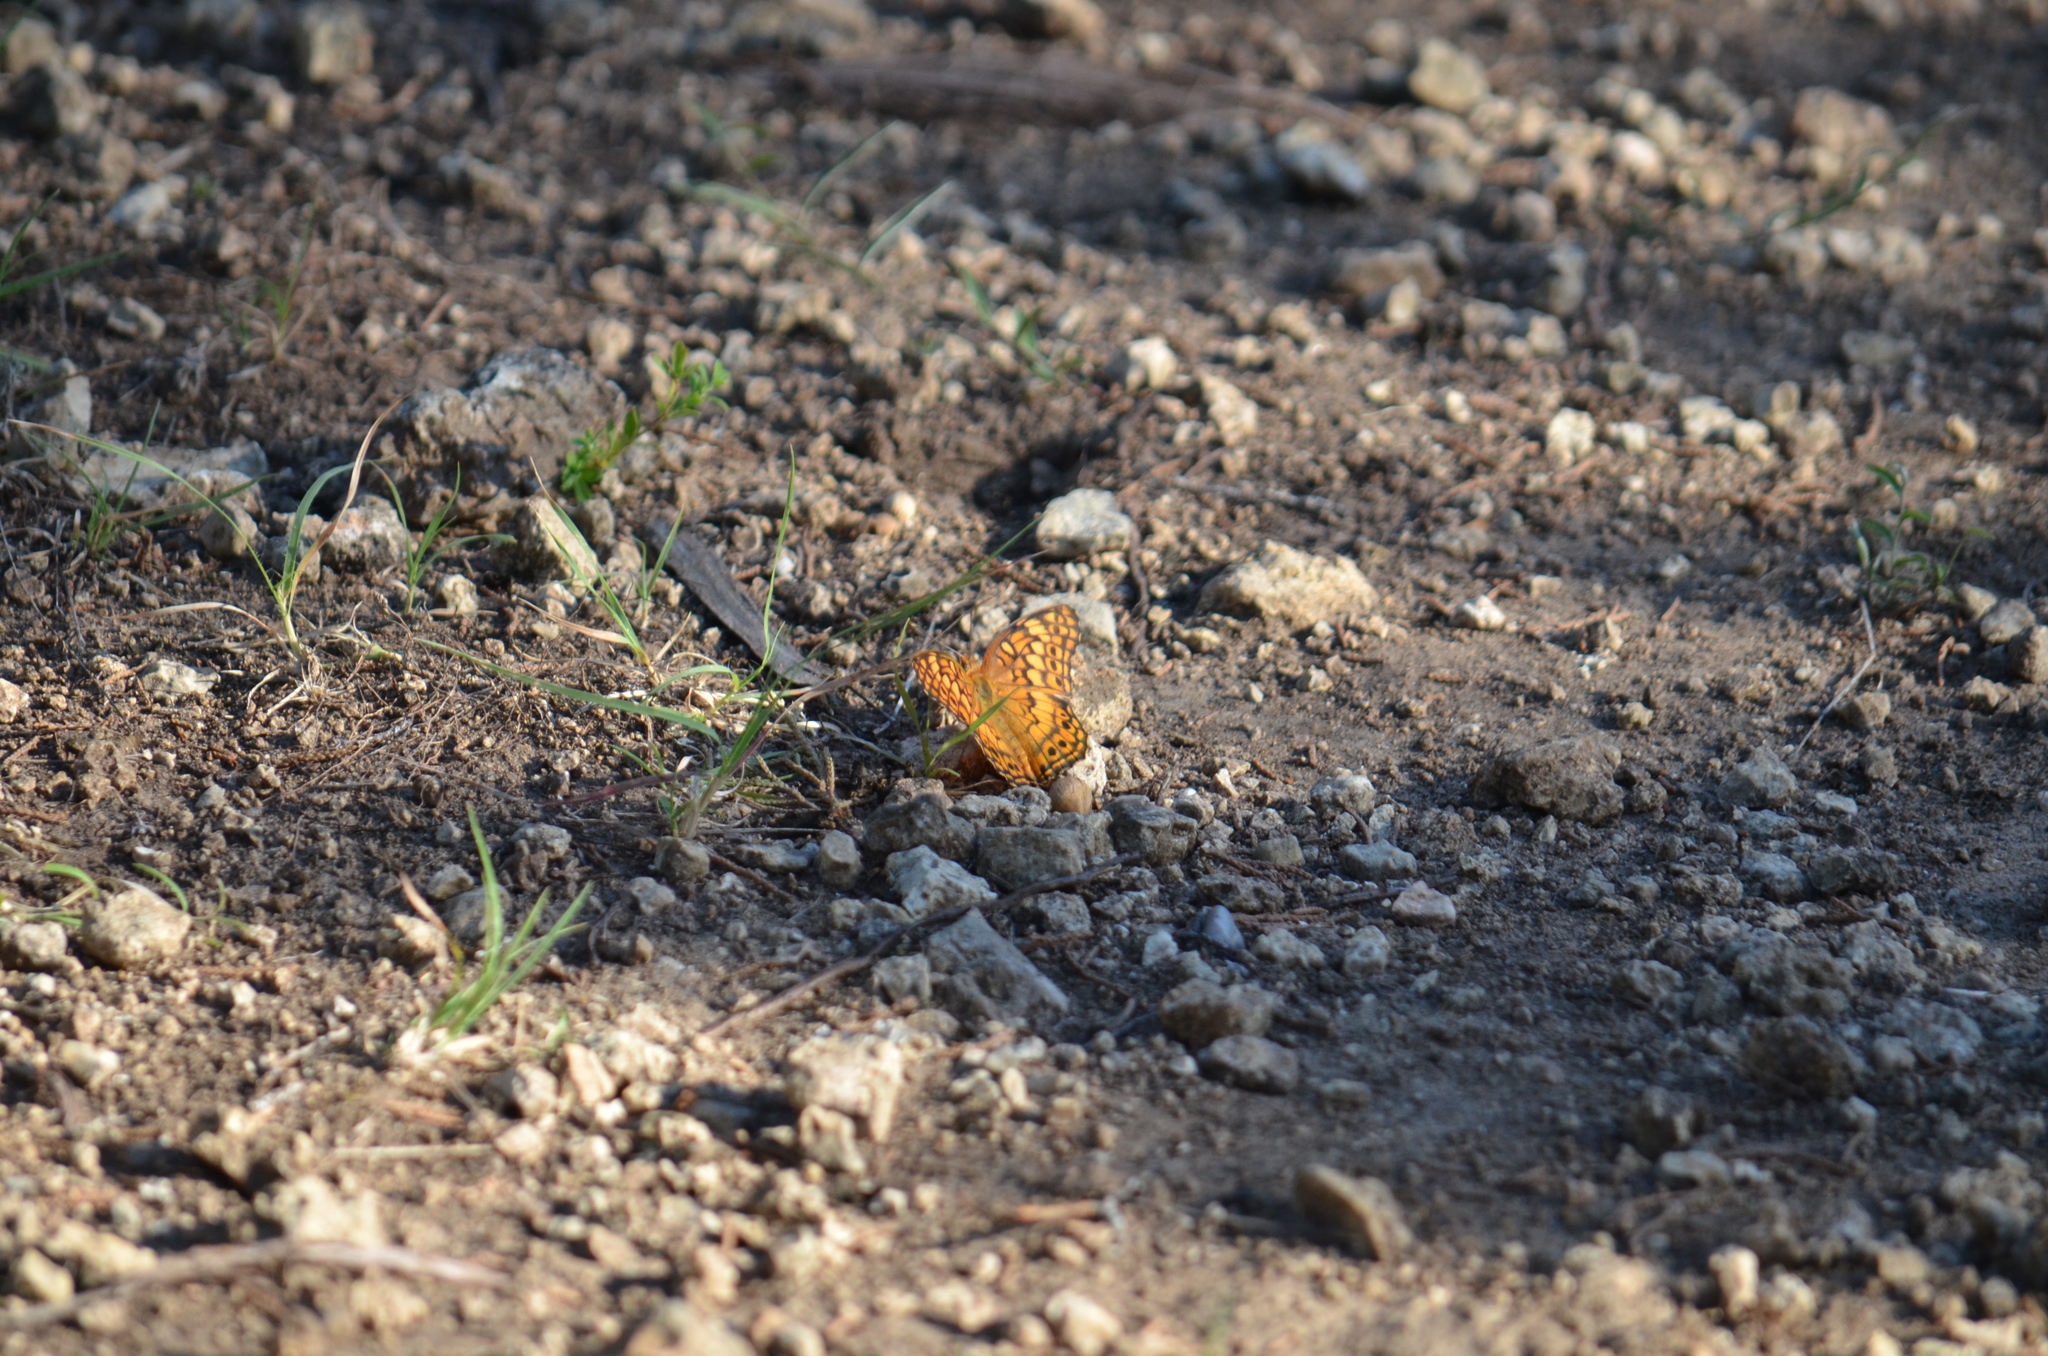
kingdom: Animalia
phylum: Arthropoda
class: Insecta
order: Lepidoptera
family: Nymphalidae
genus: Euptoieta
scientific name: Euptoieta claudia
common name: Variegated fritillary
